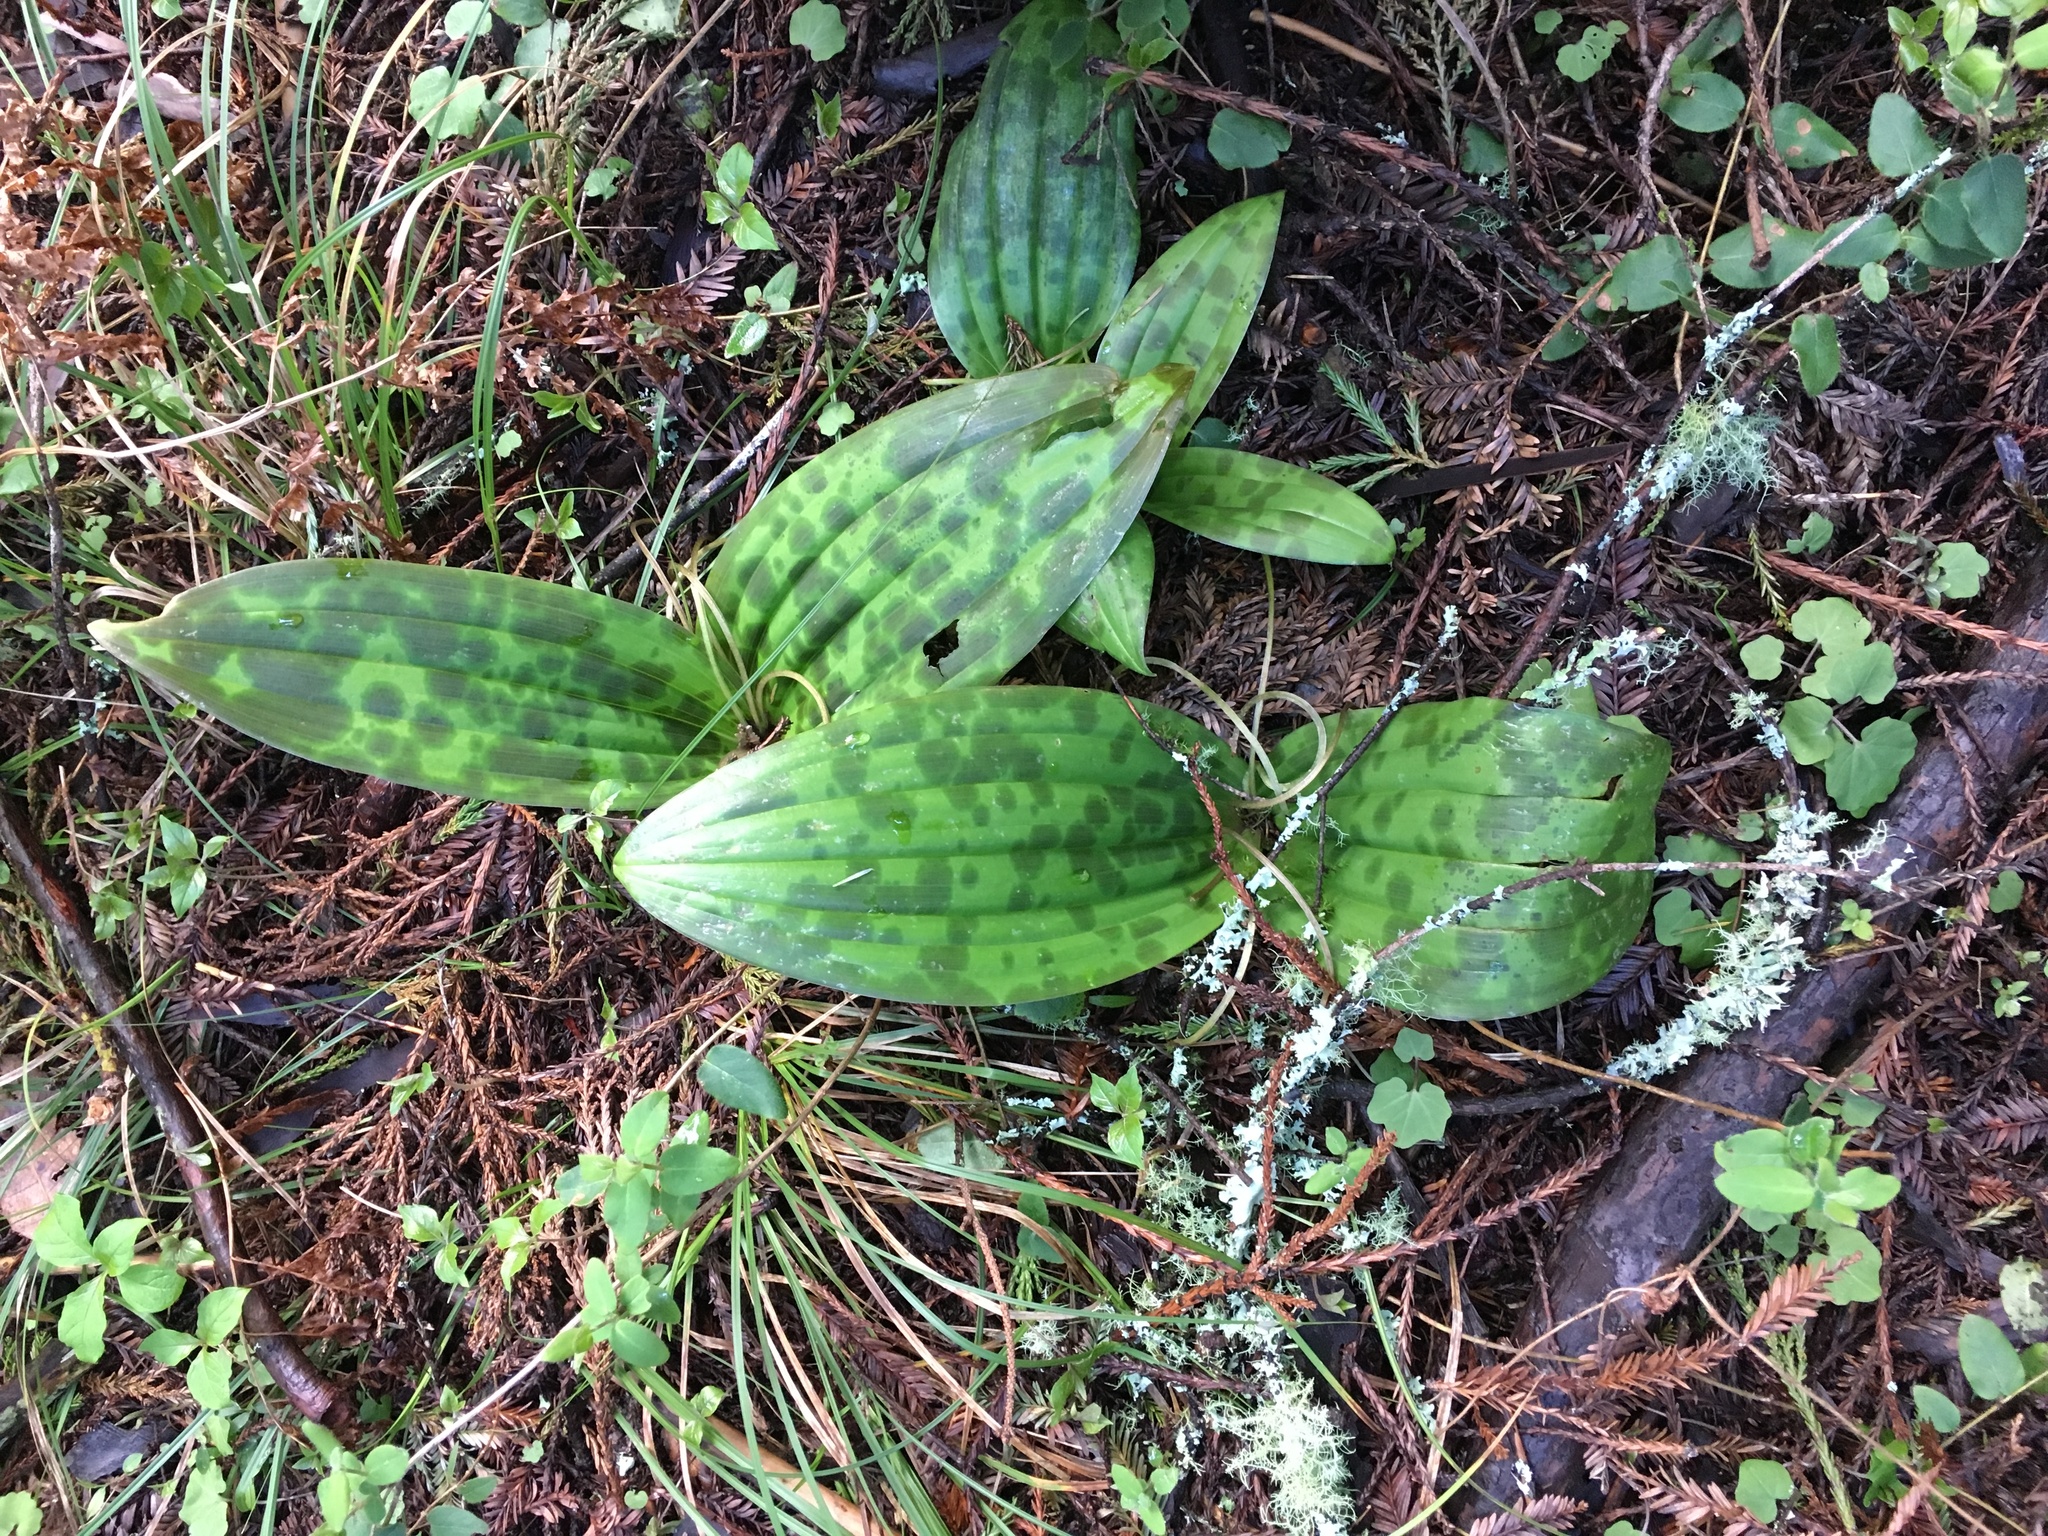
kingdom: Plantae
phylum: Tracheophyta
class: Liliopsida
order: Liliales
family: Liliaceae
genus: Scoliopus
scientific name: Scoliopus bigelovii
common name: Foetid adder's-tongue
